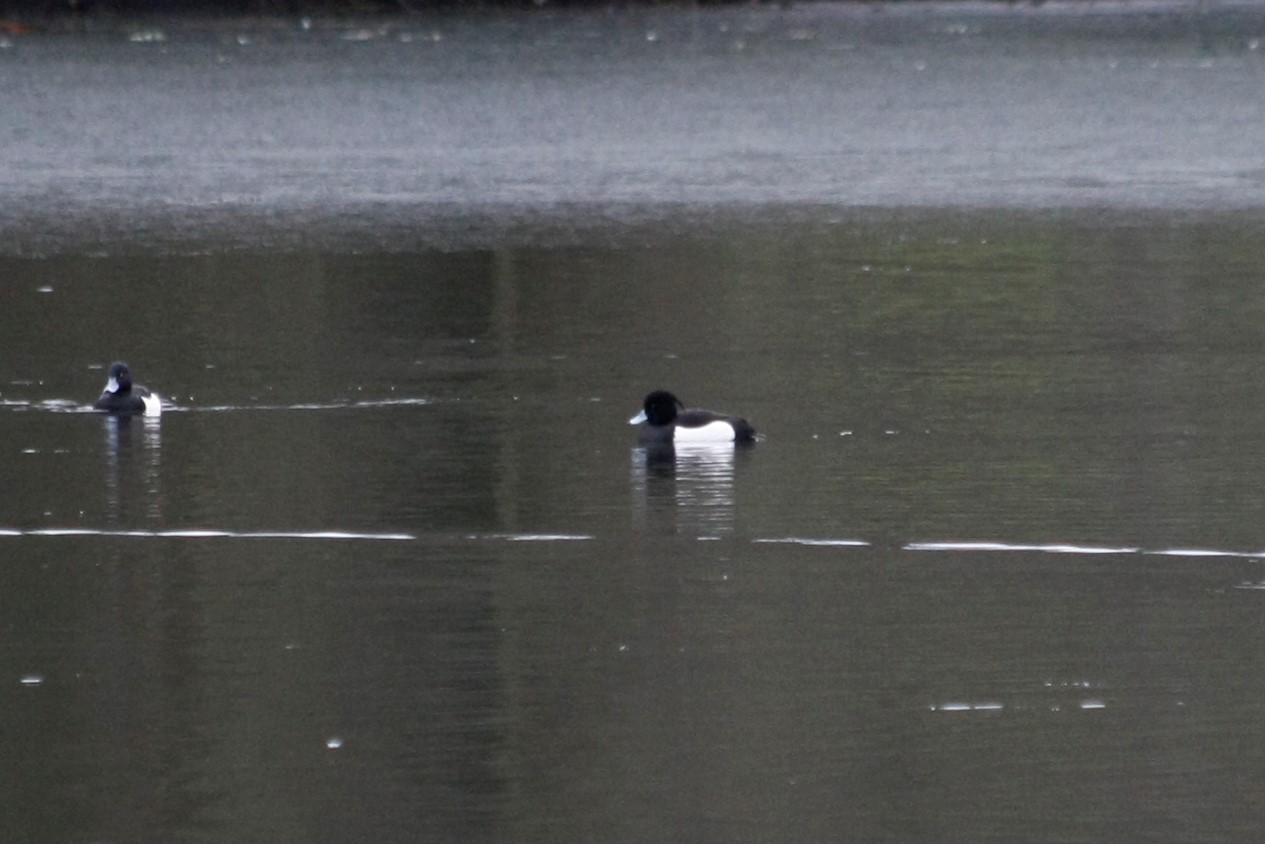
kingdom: Animalia
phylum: Chordata
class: Aves
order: Anseriformes
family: Anatidae
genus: Aythya
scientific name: Aythya fuligula
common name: Tufted duck
